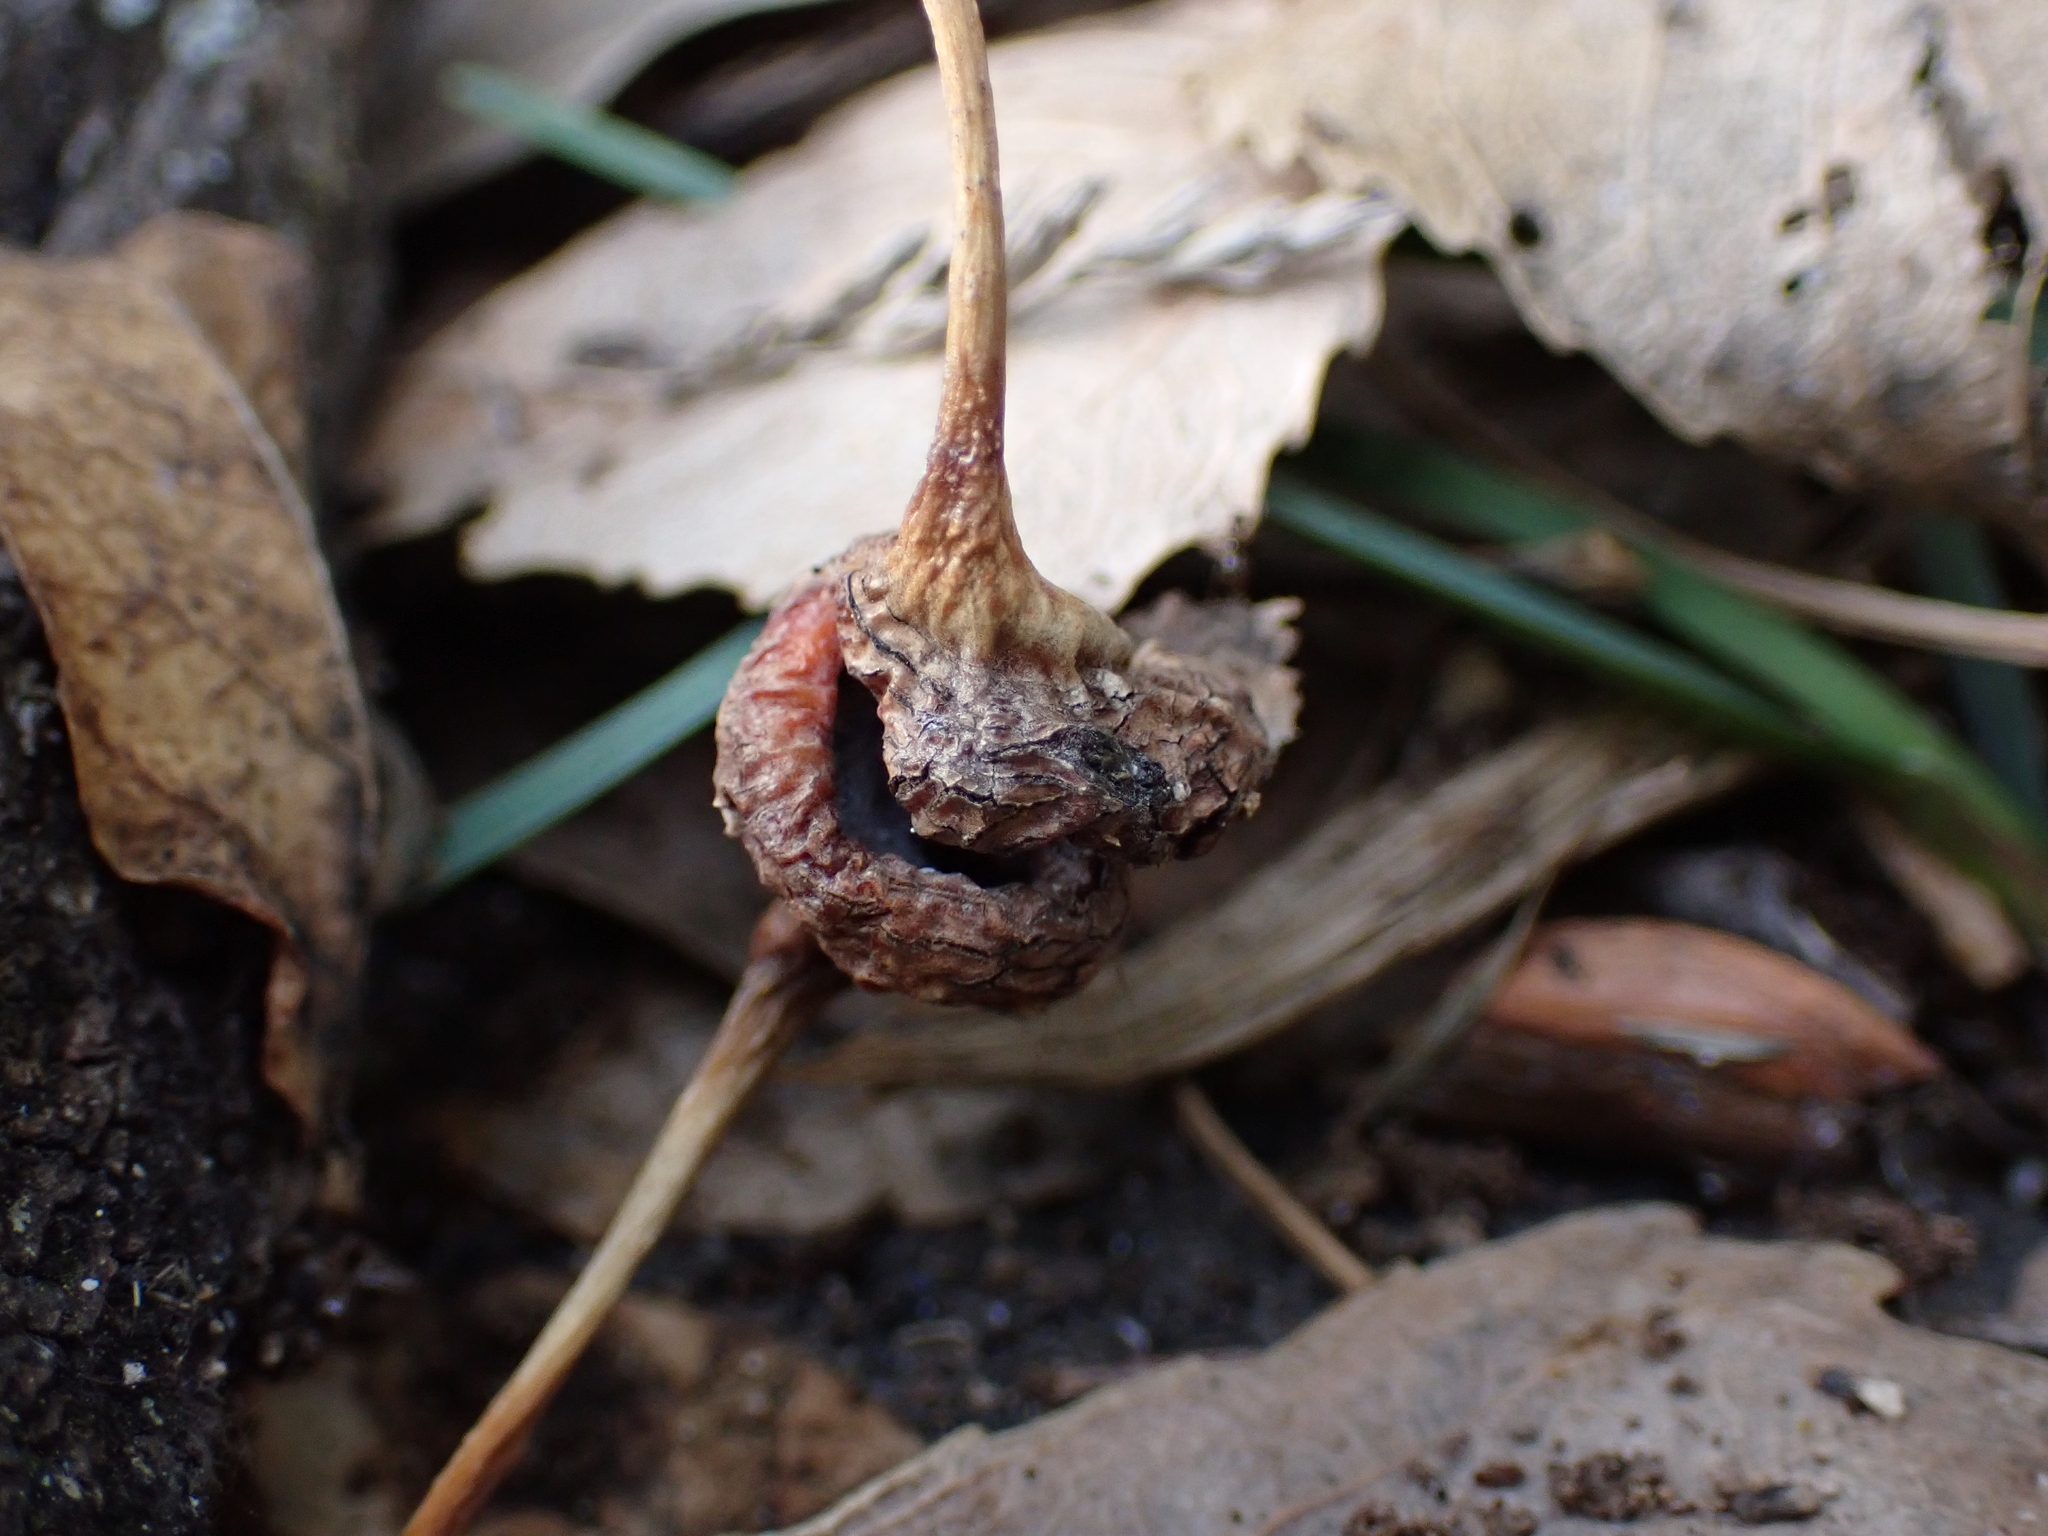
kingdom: Animalia
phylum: Arthropoda
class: Insecta
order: Hemiptera
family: Aphididae
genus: Pemphigus
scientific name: Pemphigus spyrothecae
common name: Aphid
